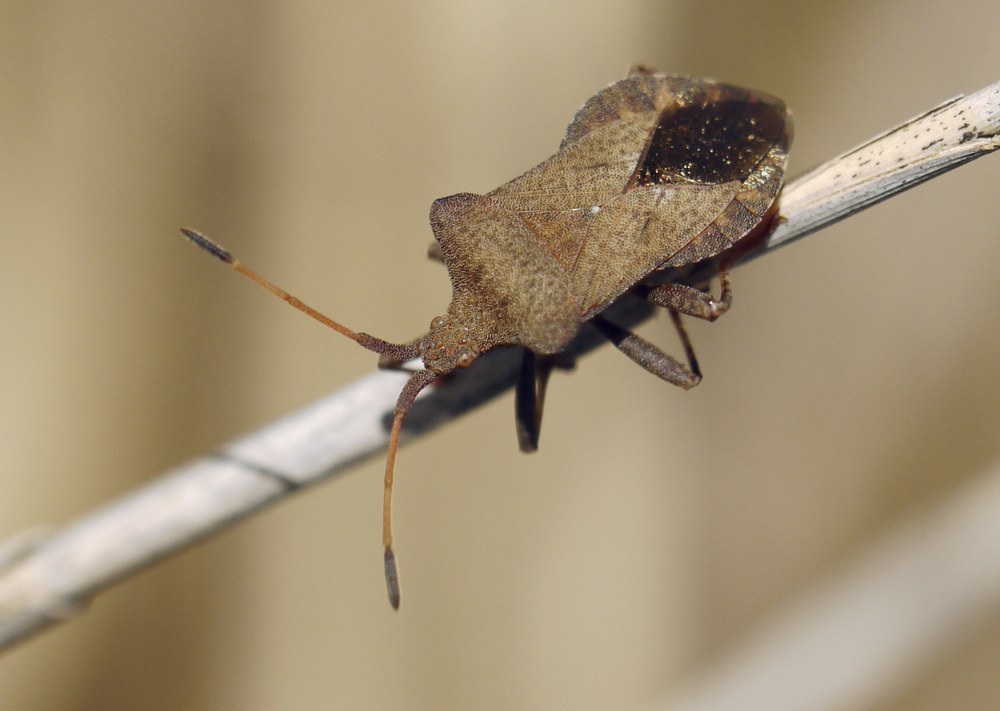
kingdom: Animalia
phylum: Arthropoda
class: Insecta
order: Hemiptera
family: Coreidae
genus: Coreus
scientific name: Coreus marginatus
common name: Dock bug
